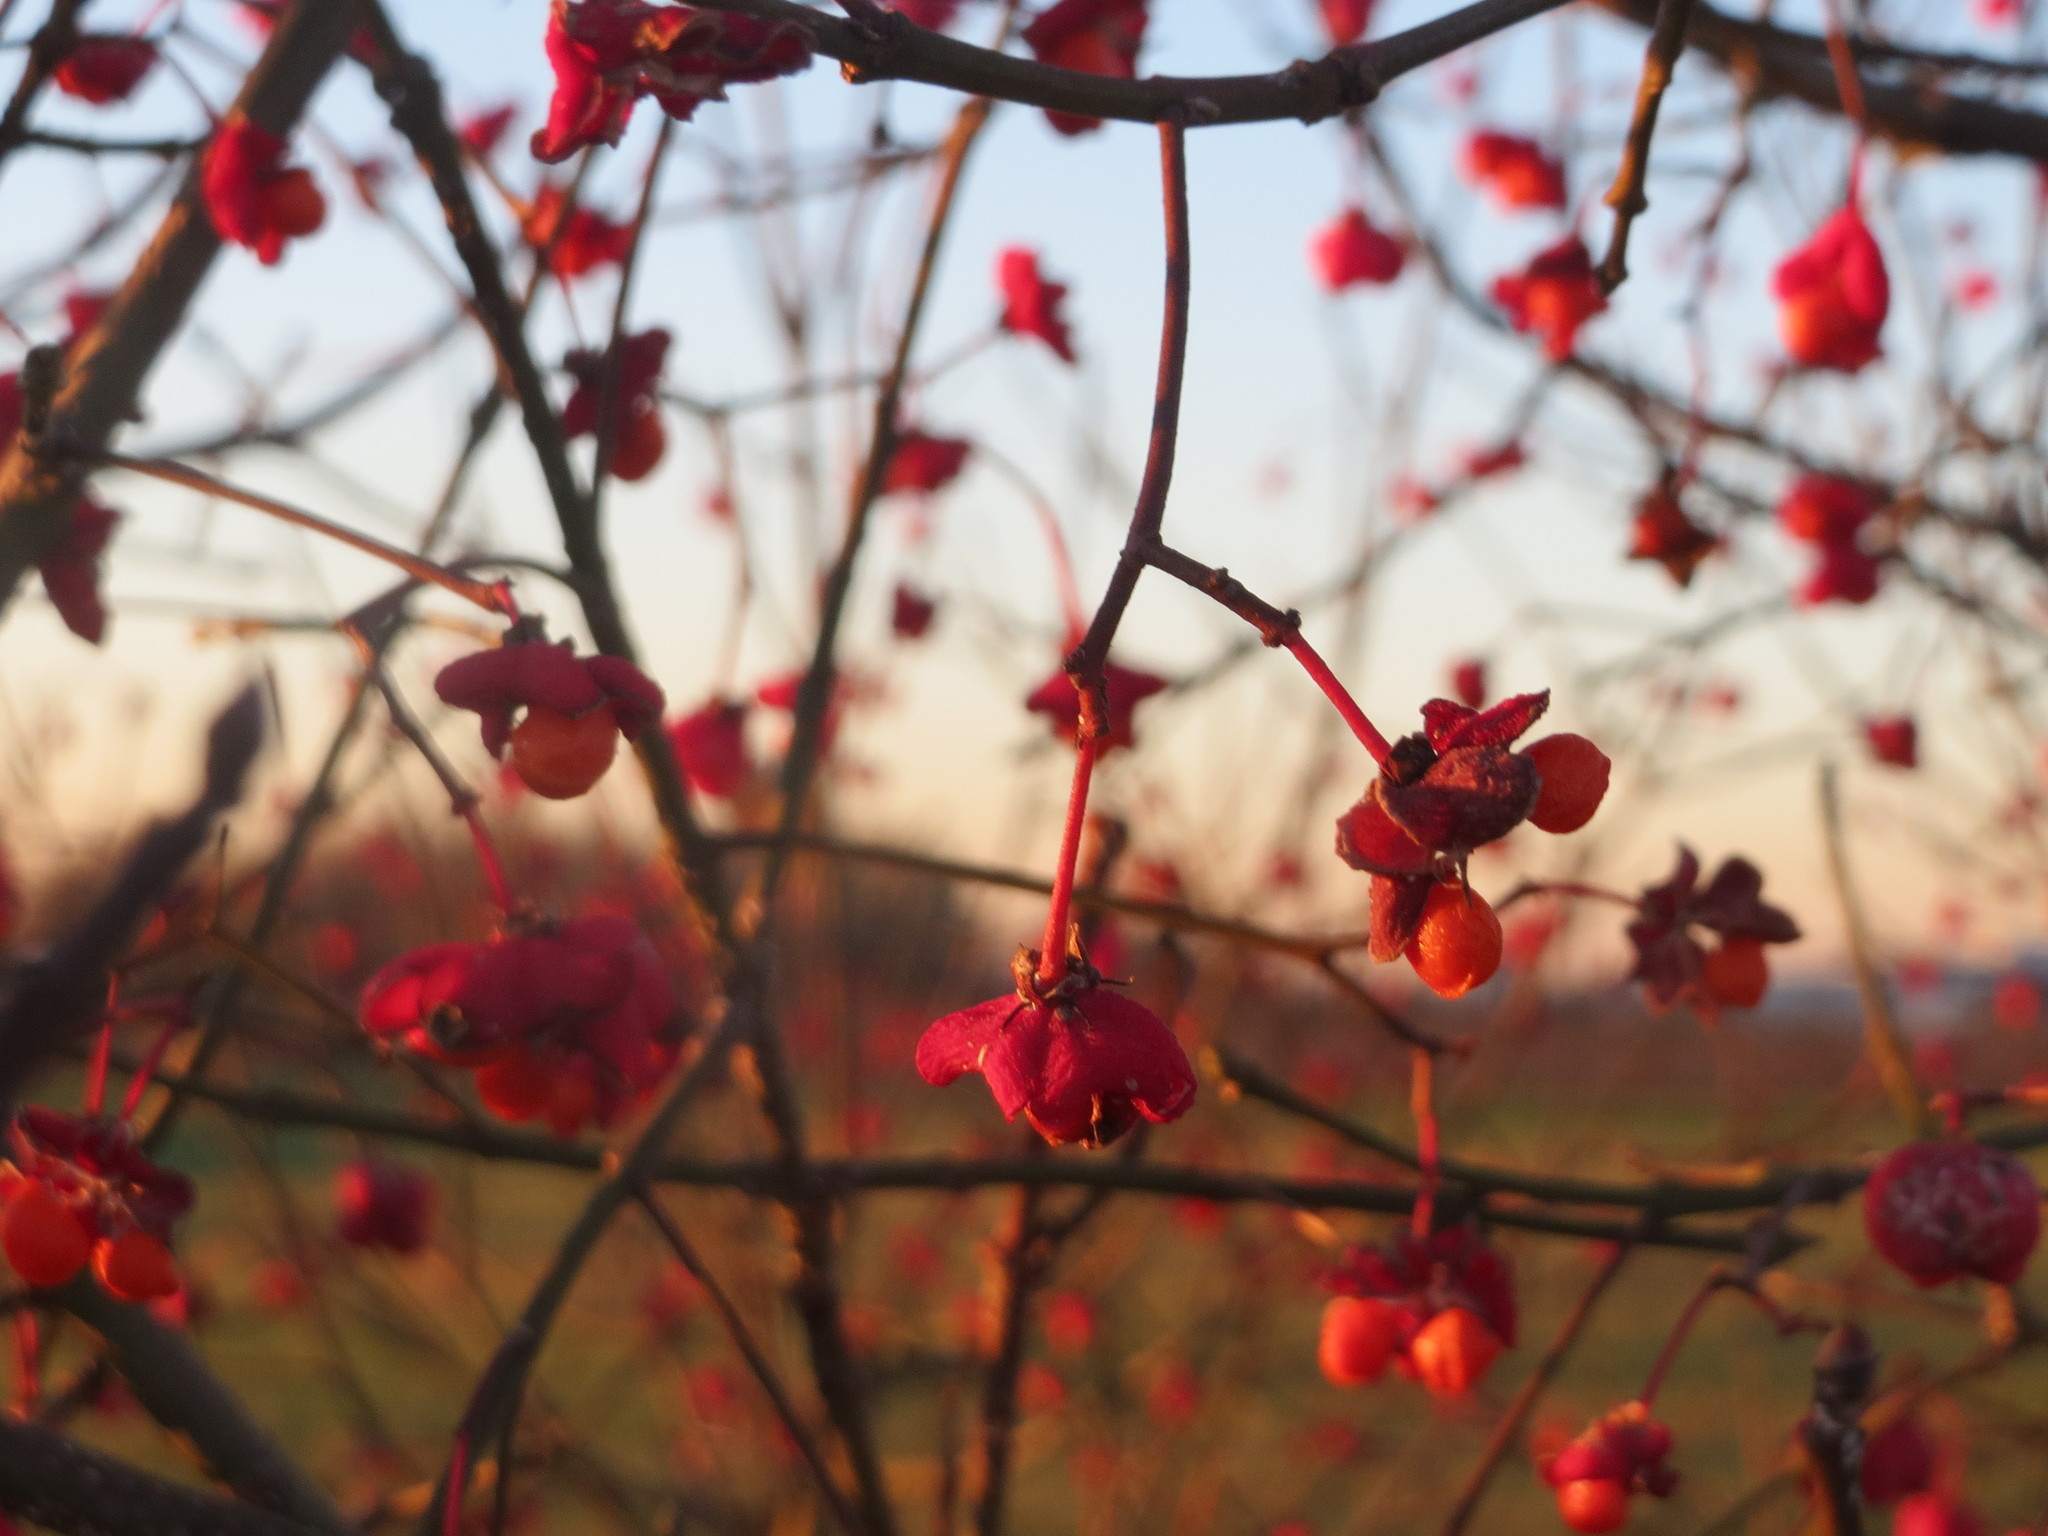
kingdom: Plantae
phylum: Tracheophyta
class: Magnoliopsida
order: Celastrales
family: Celastraceae
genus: Euonymus
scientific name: Euonymus europaeus
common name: Spindle
